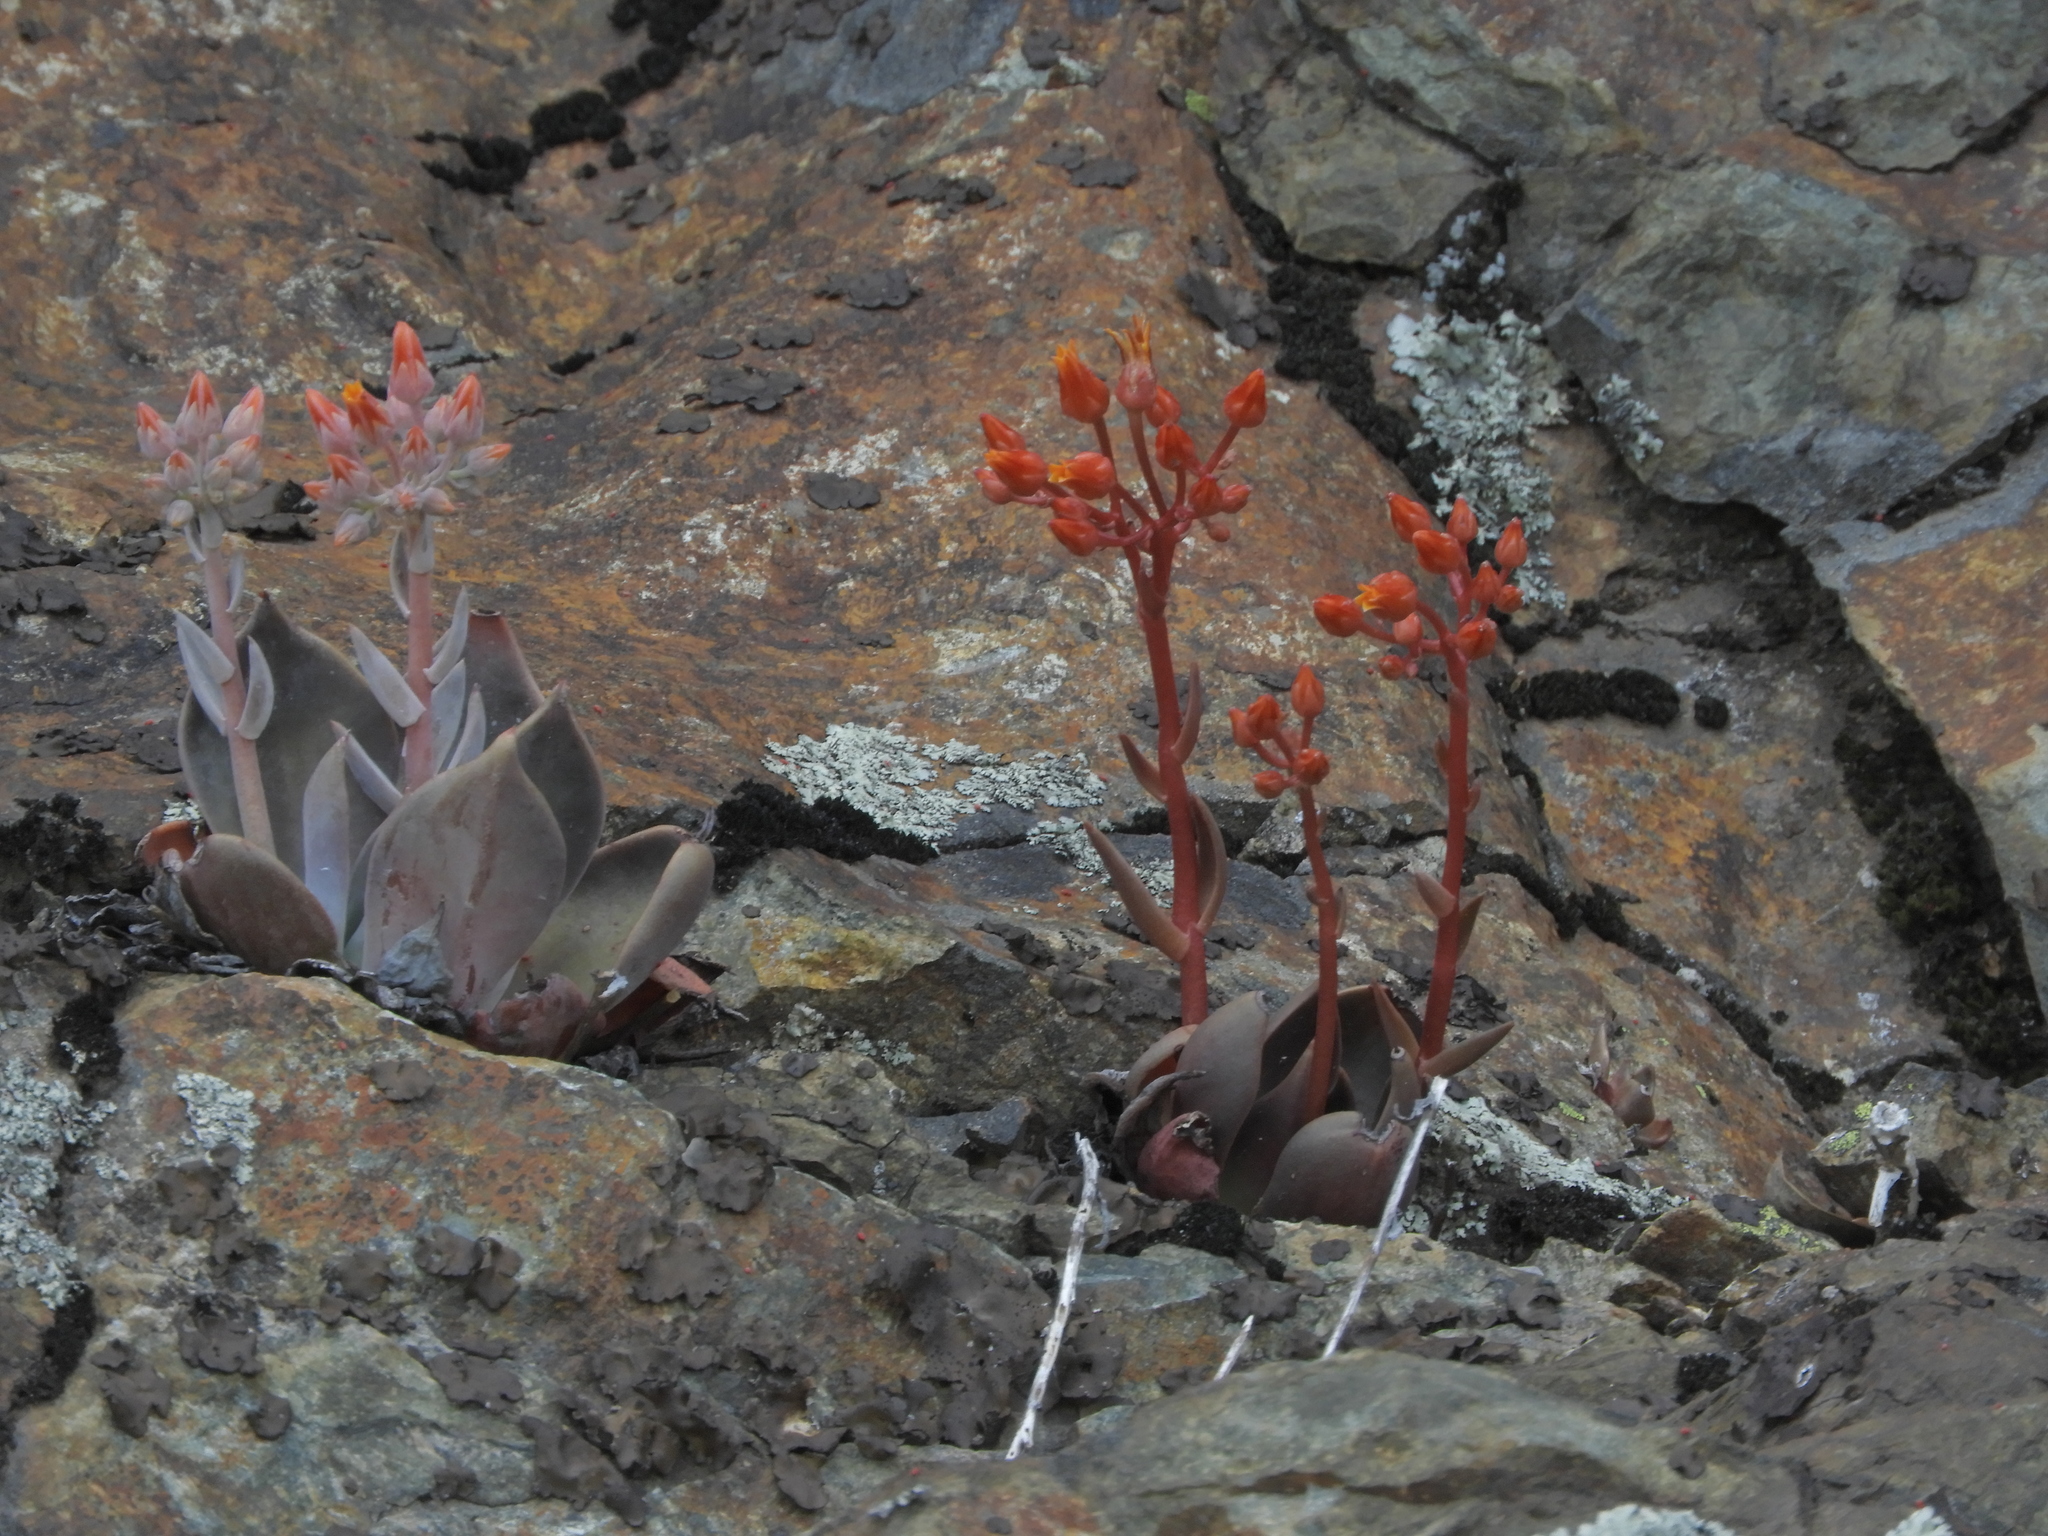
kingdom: Plantae
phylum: Tracheophyta
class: Magnoliopsida
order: Saxifragales
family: Crassulaceae
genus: Dudleya
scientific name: Dudleya cymosa
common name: Canyon dudleya
